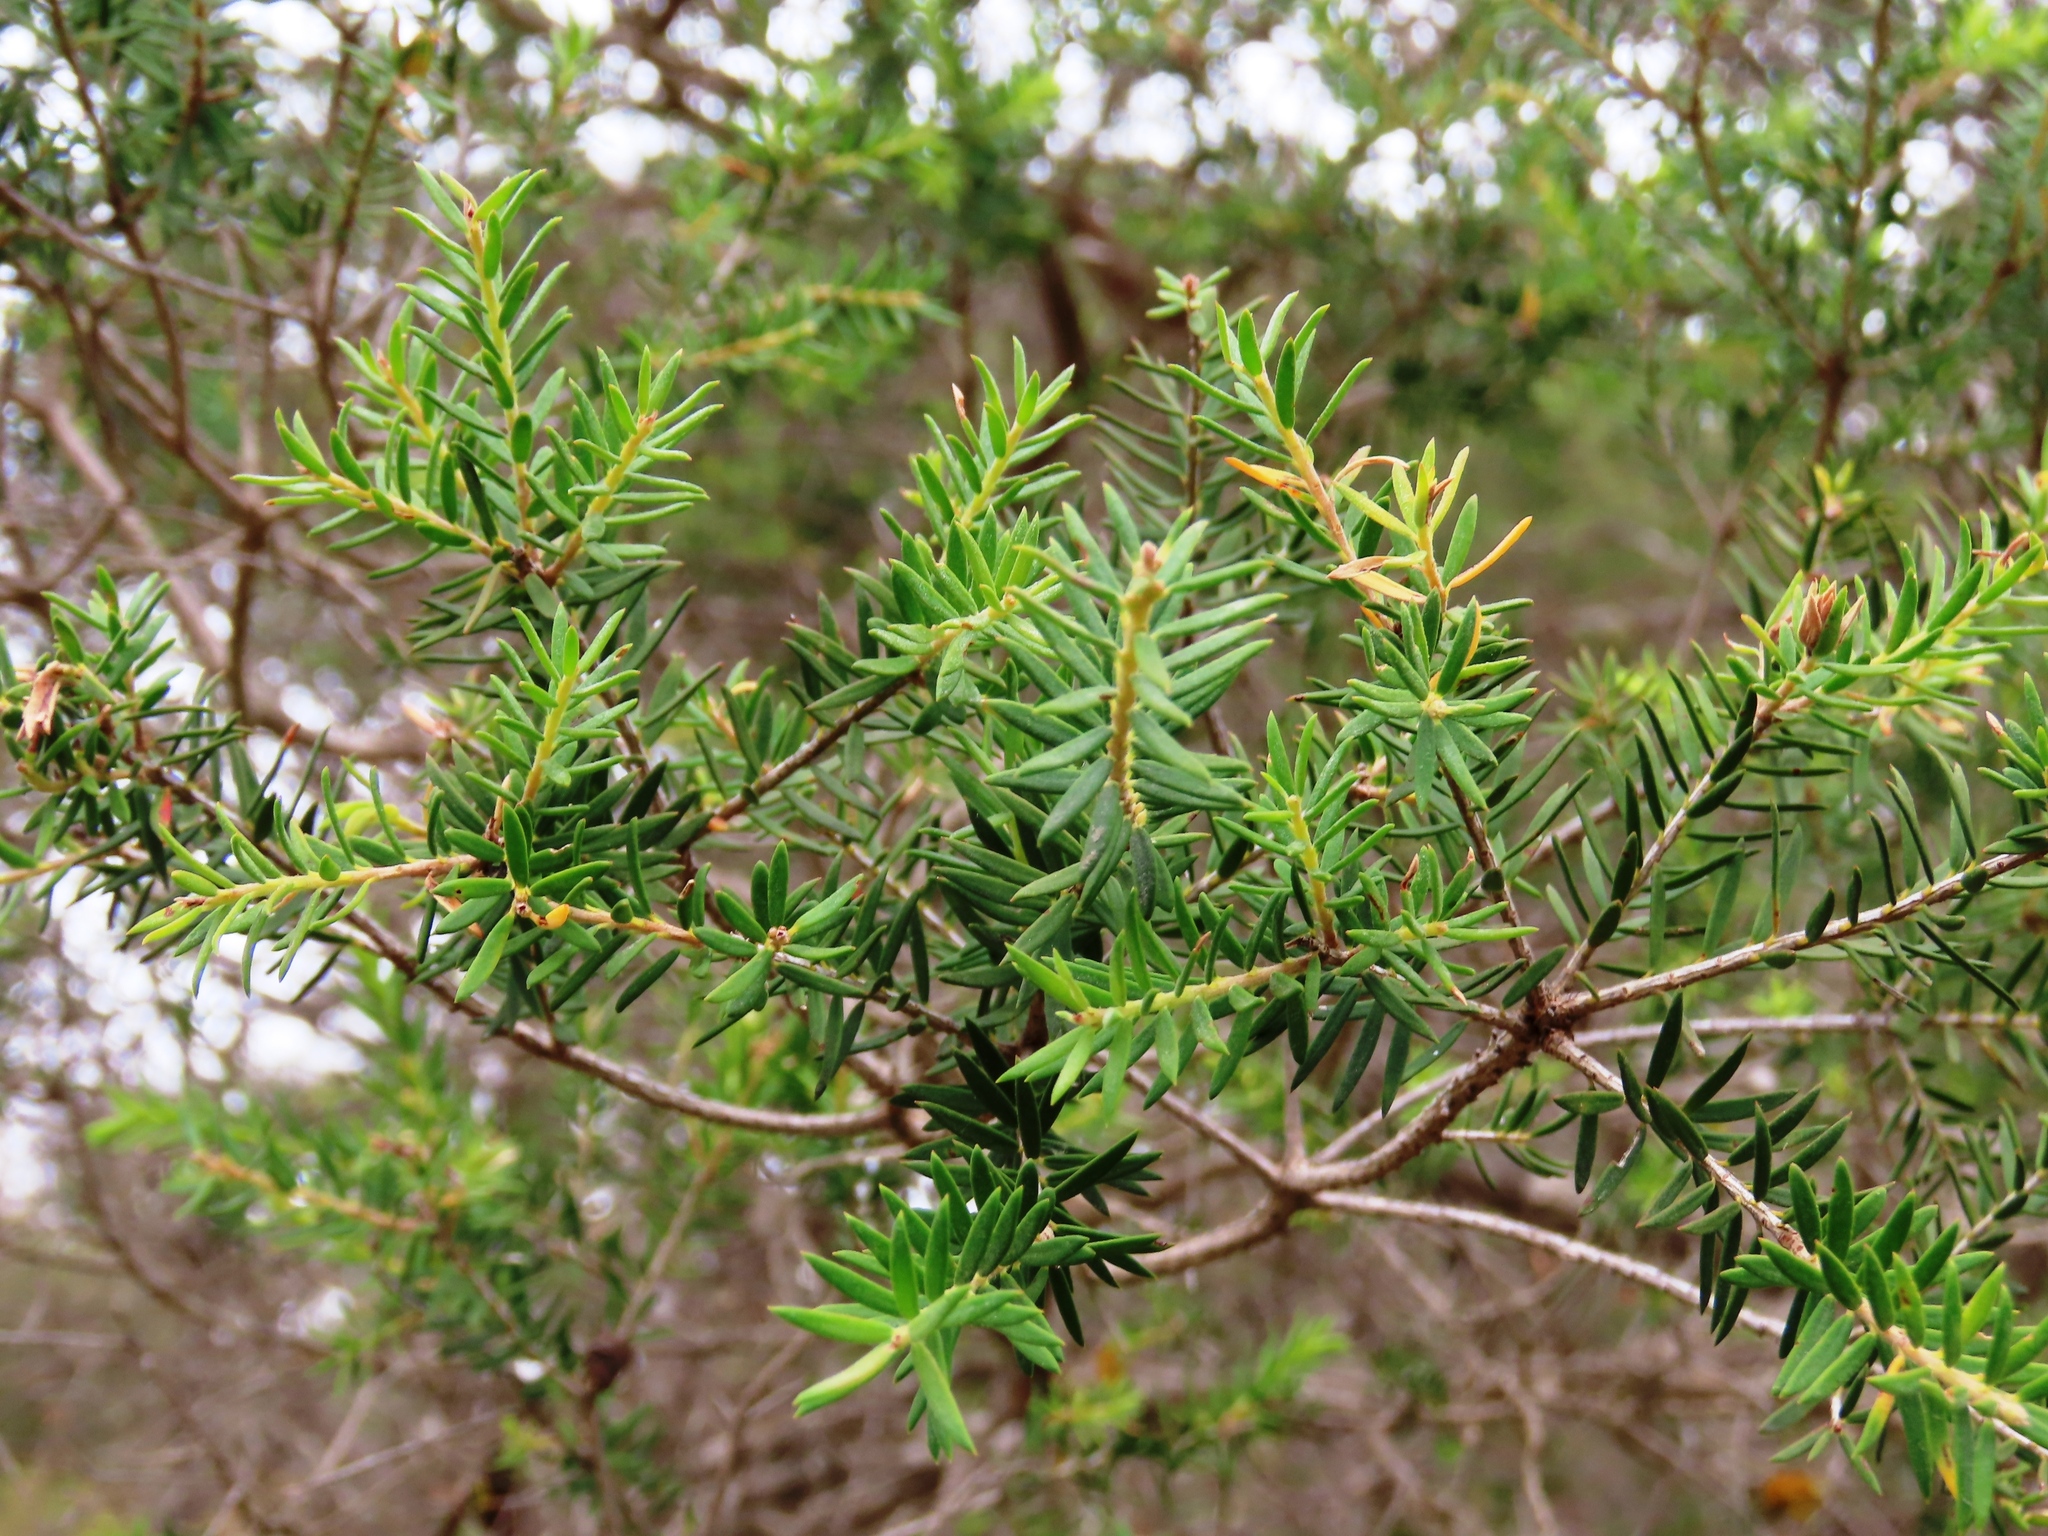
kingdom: Plantae
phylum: Tracheophyta
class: Magnoliopsida
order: Myrtales
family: Myrtaceae
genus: Melaleuca
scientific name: Melaleuca lanceolata
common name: Rottnest island teatree
